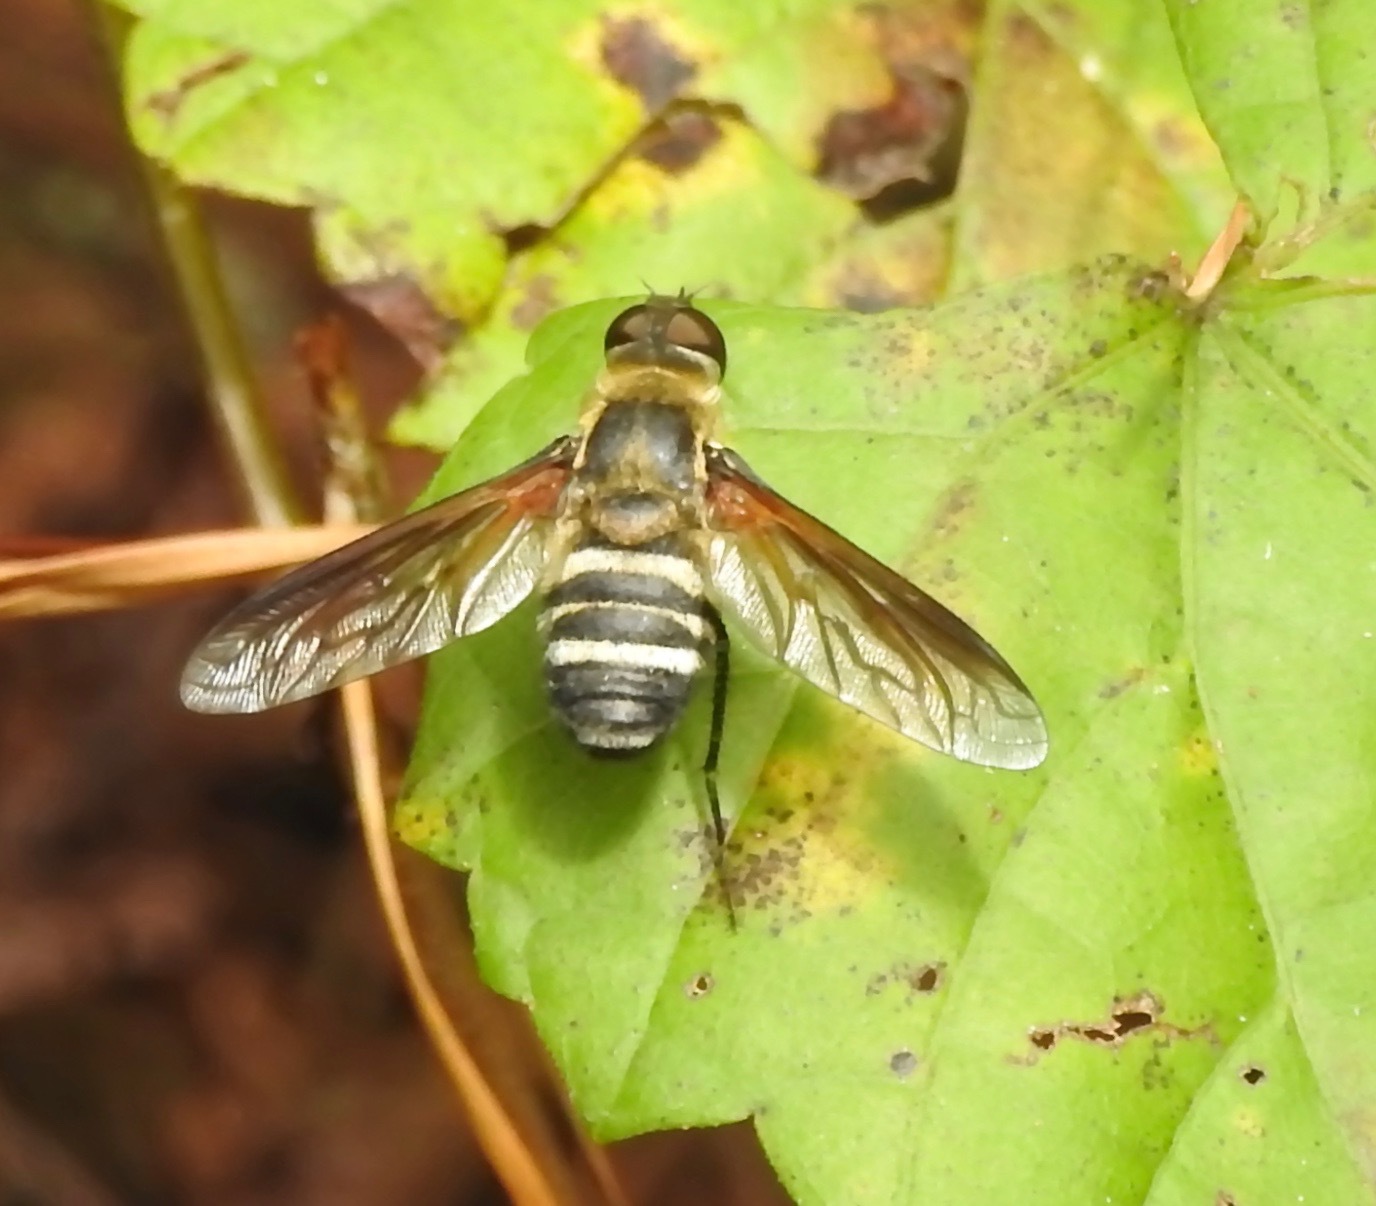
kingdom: Animalia
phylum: Arthropoda
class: Insecta
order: Diptera
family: Bombyliidae
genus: Exoprosopa
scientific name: Exoprosopa fasciata
